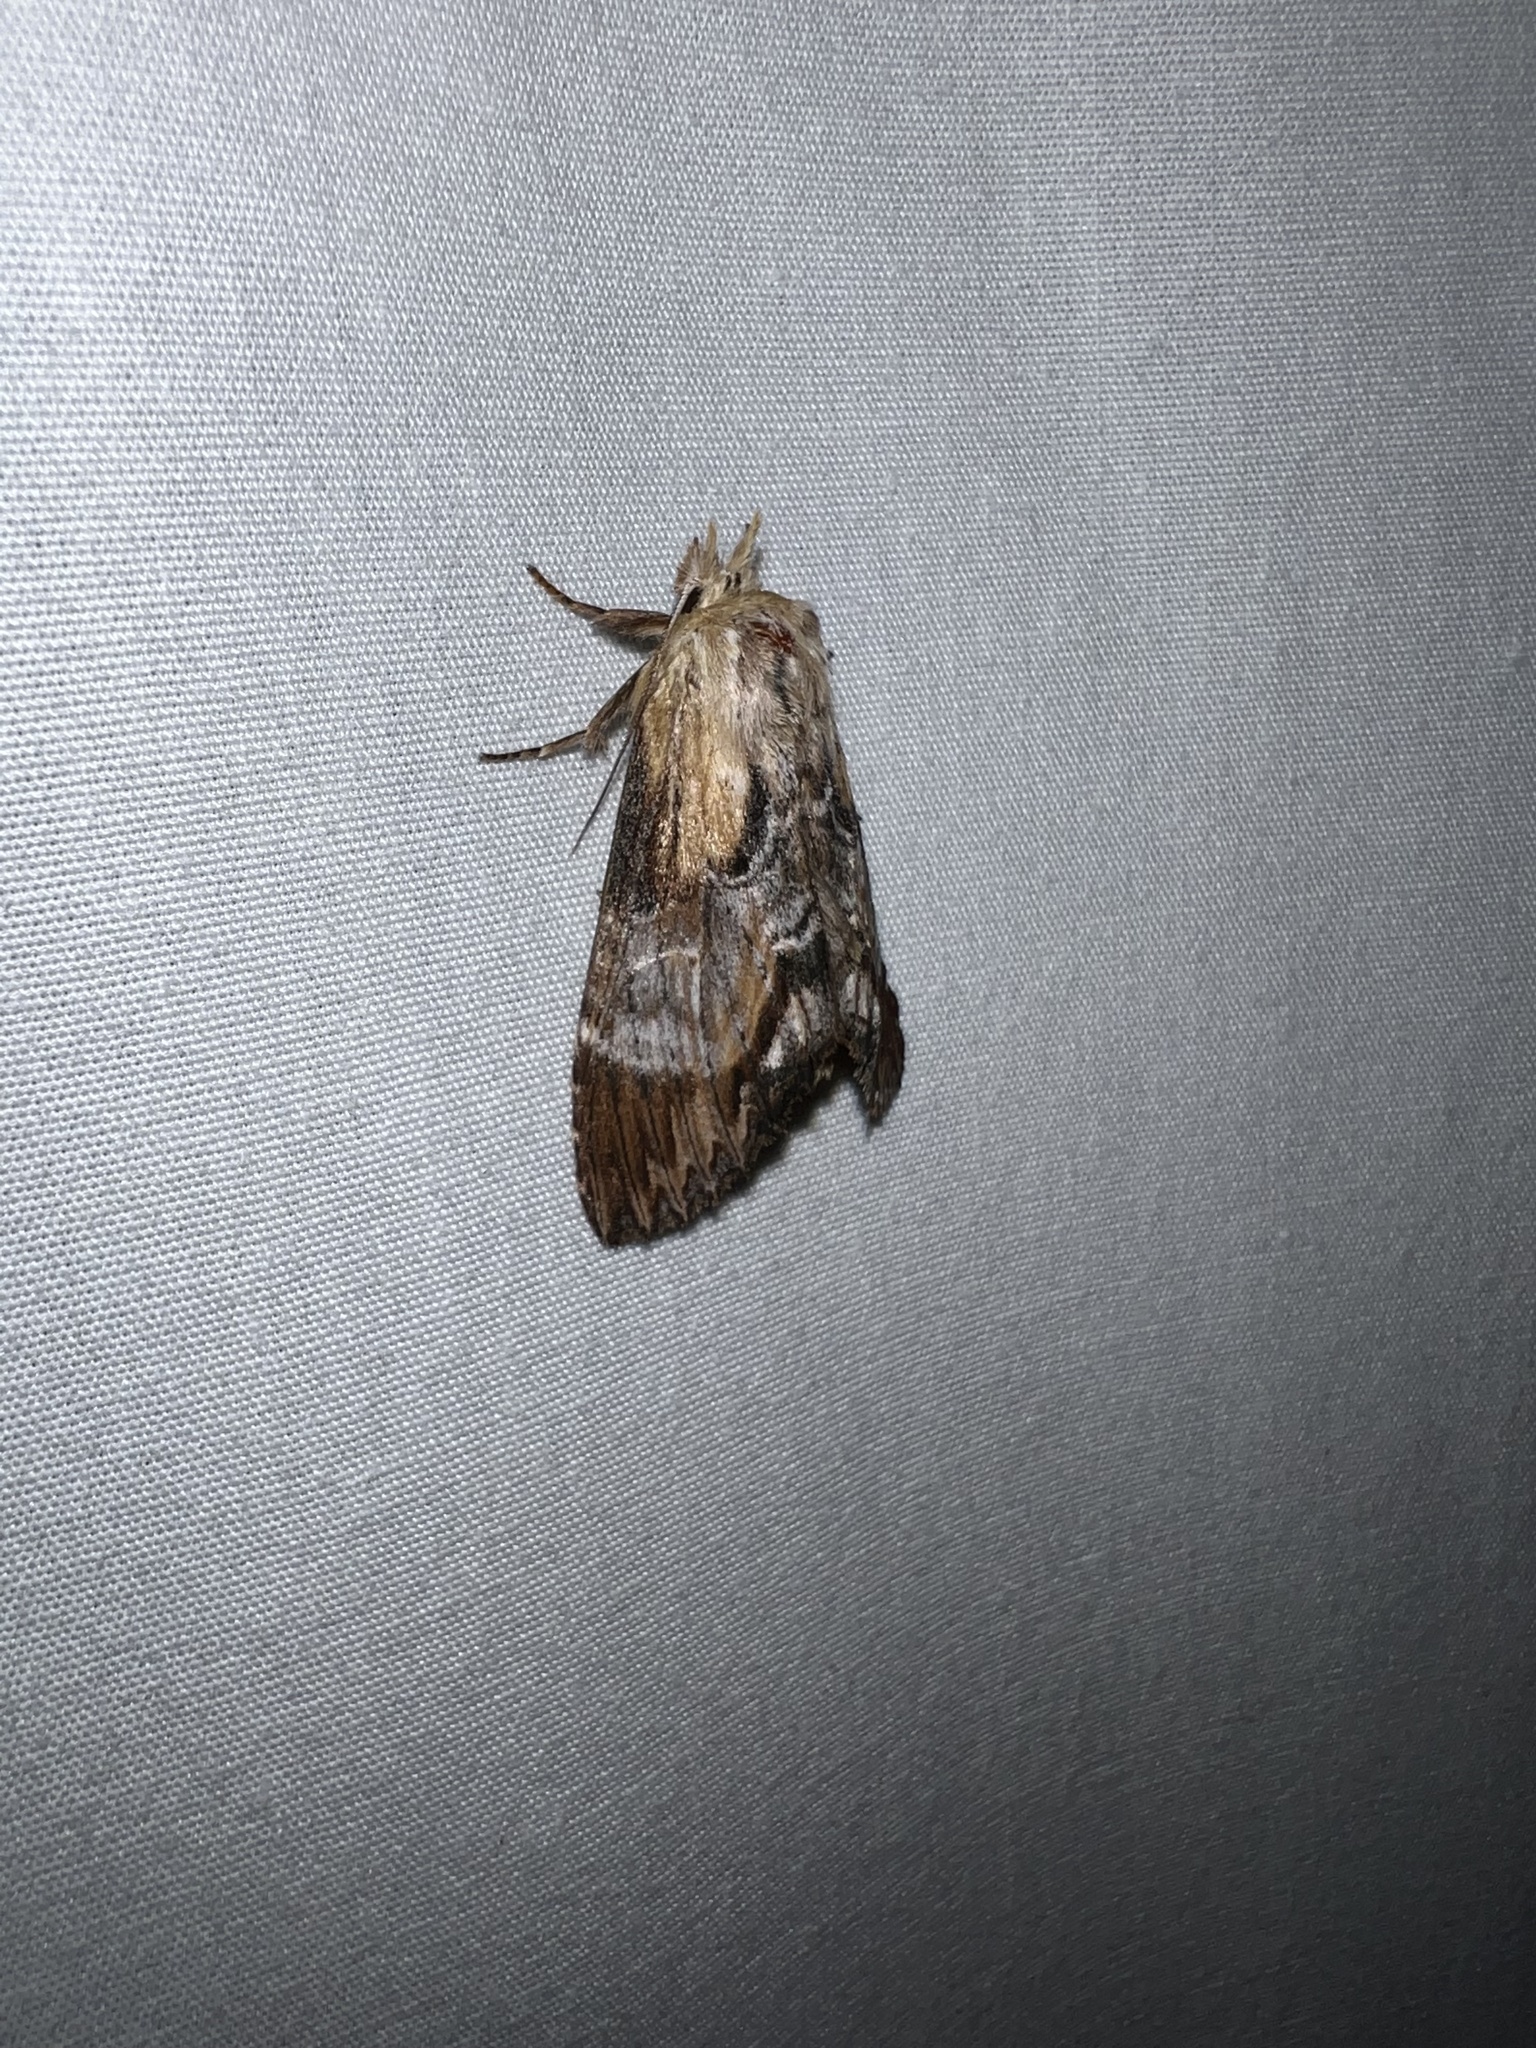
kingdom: Animalia
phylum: Arthropoda
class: Insecta
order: Lepidoptera
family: Notodontidae
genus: Dasylophia
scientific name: Dasylophia thyatiroides
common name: Gray-patched prominent
